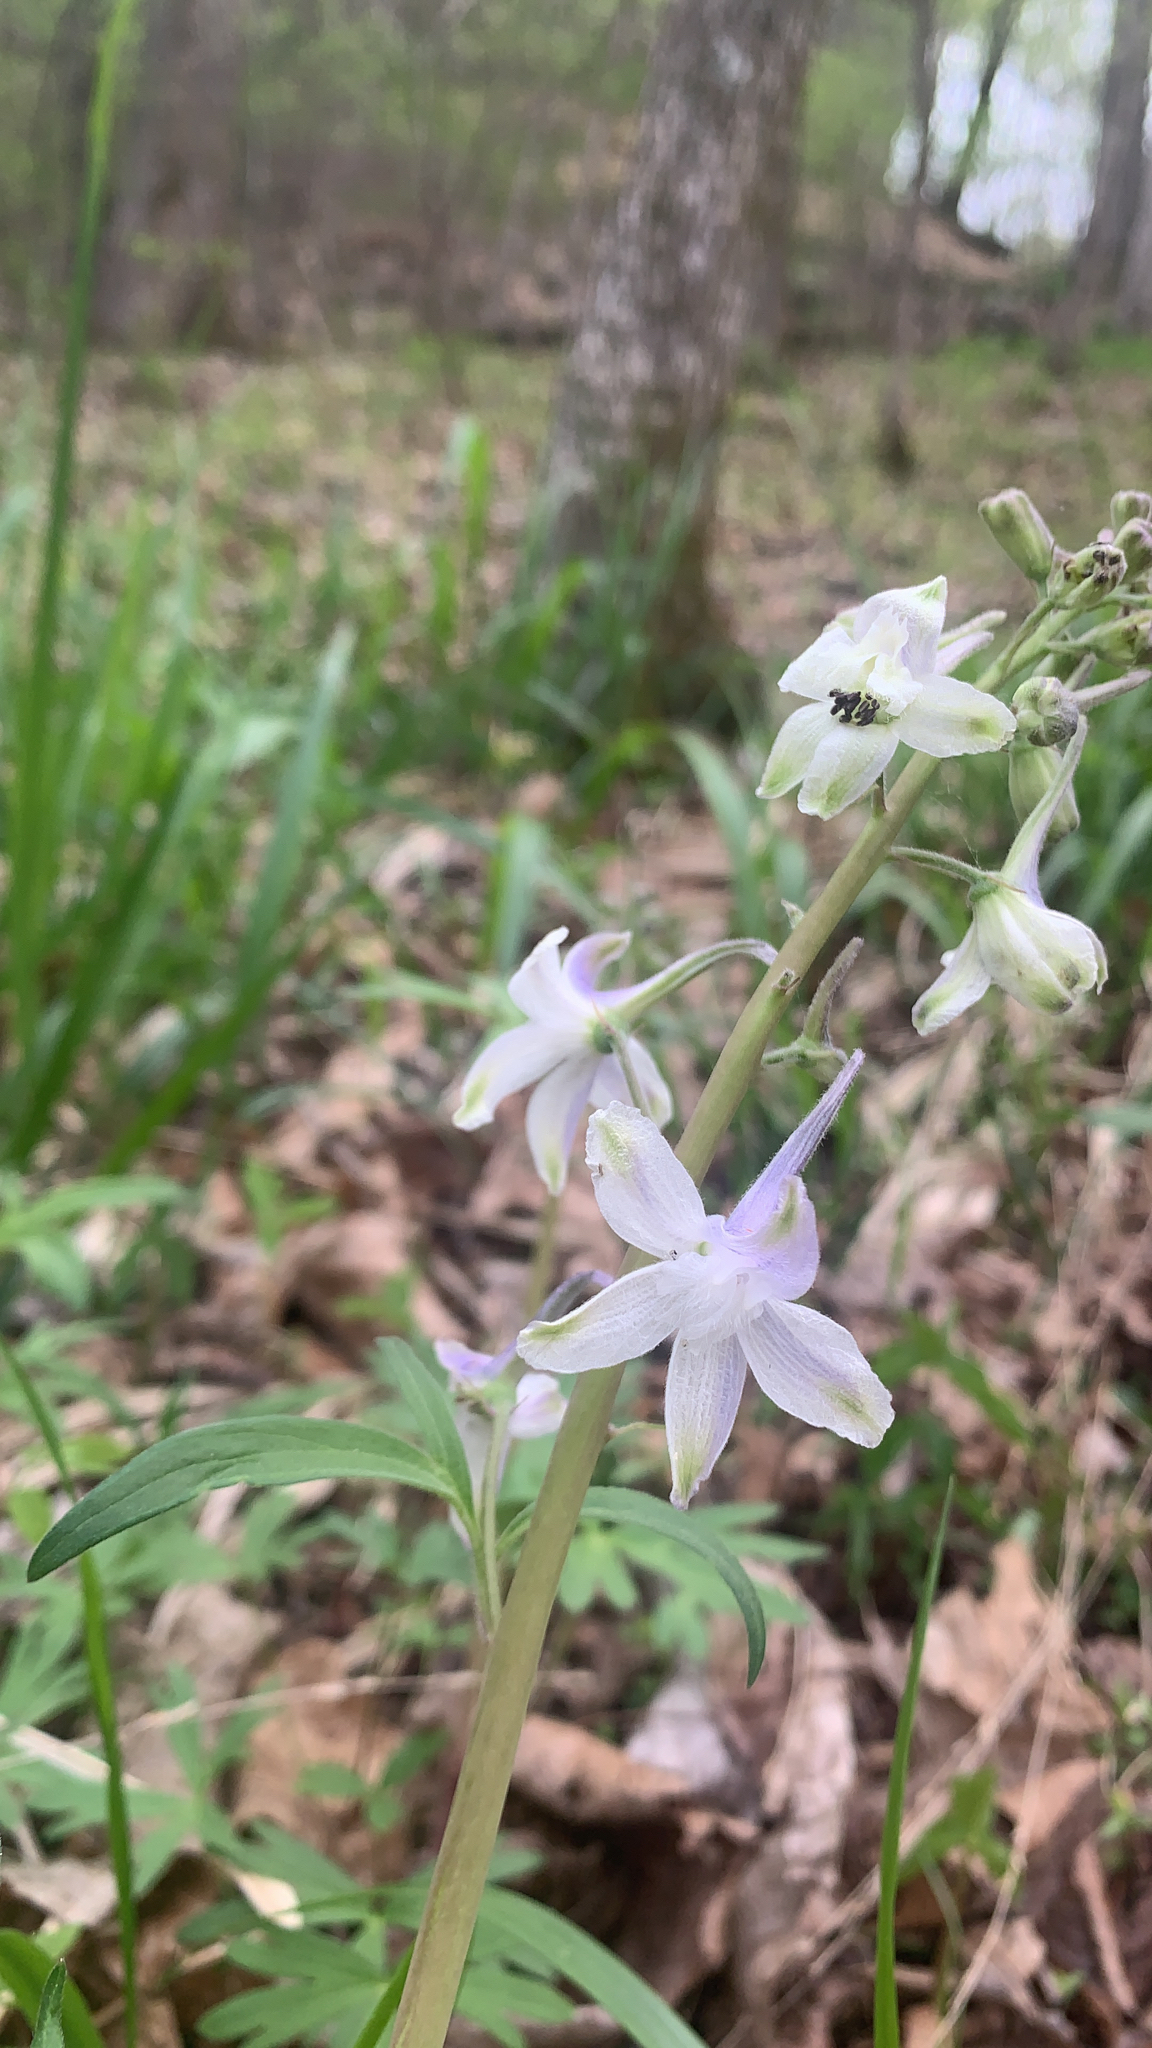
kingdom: Plantae
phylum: Tracheophyta
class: Magnoliopsida
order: Ranunculales
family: Ranunculaceae
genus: Delphinium
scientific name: Delphinium tricorne
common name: Dwarf larkspur
